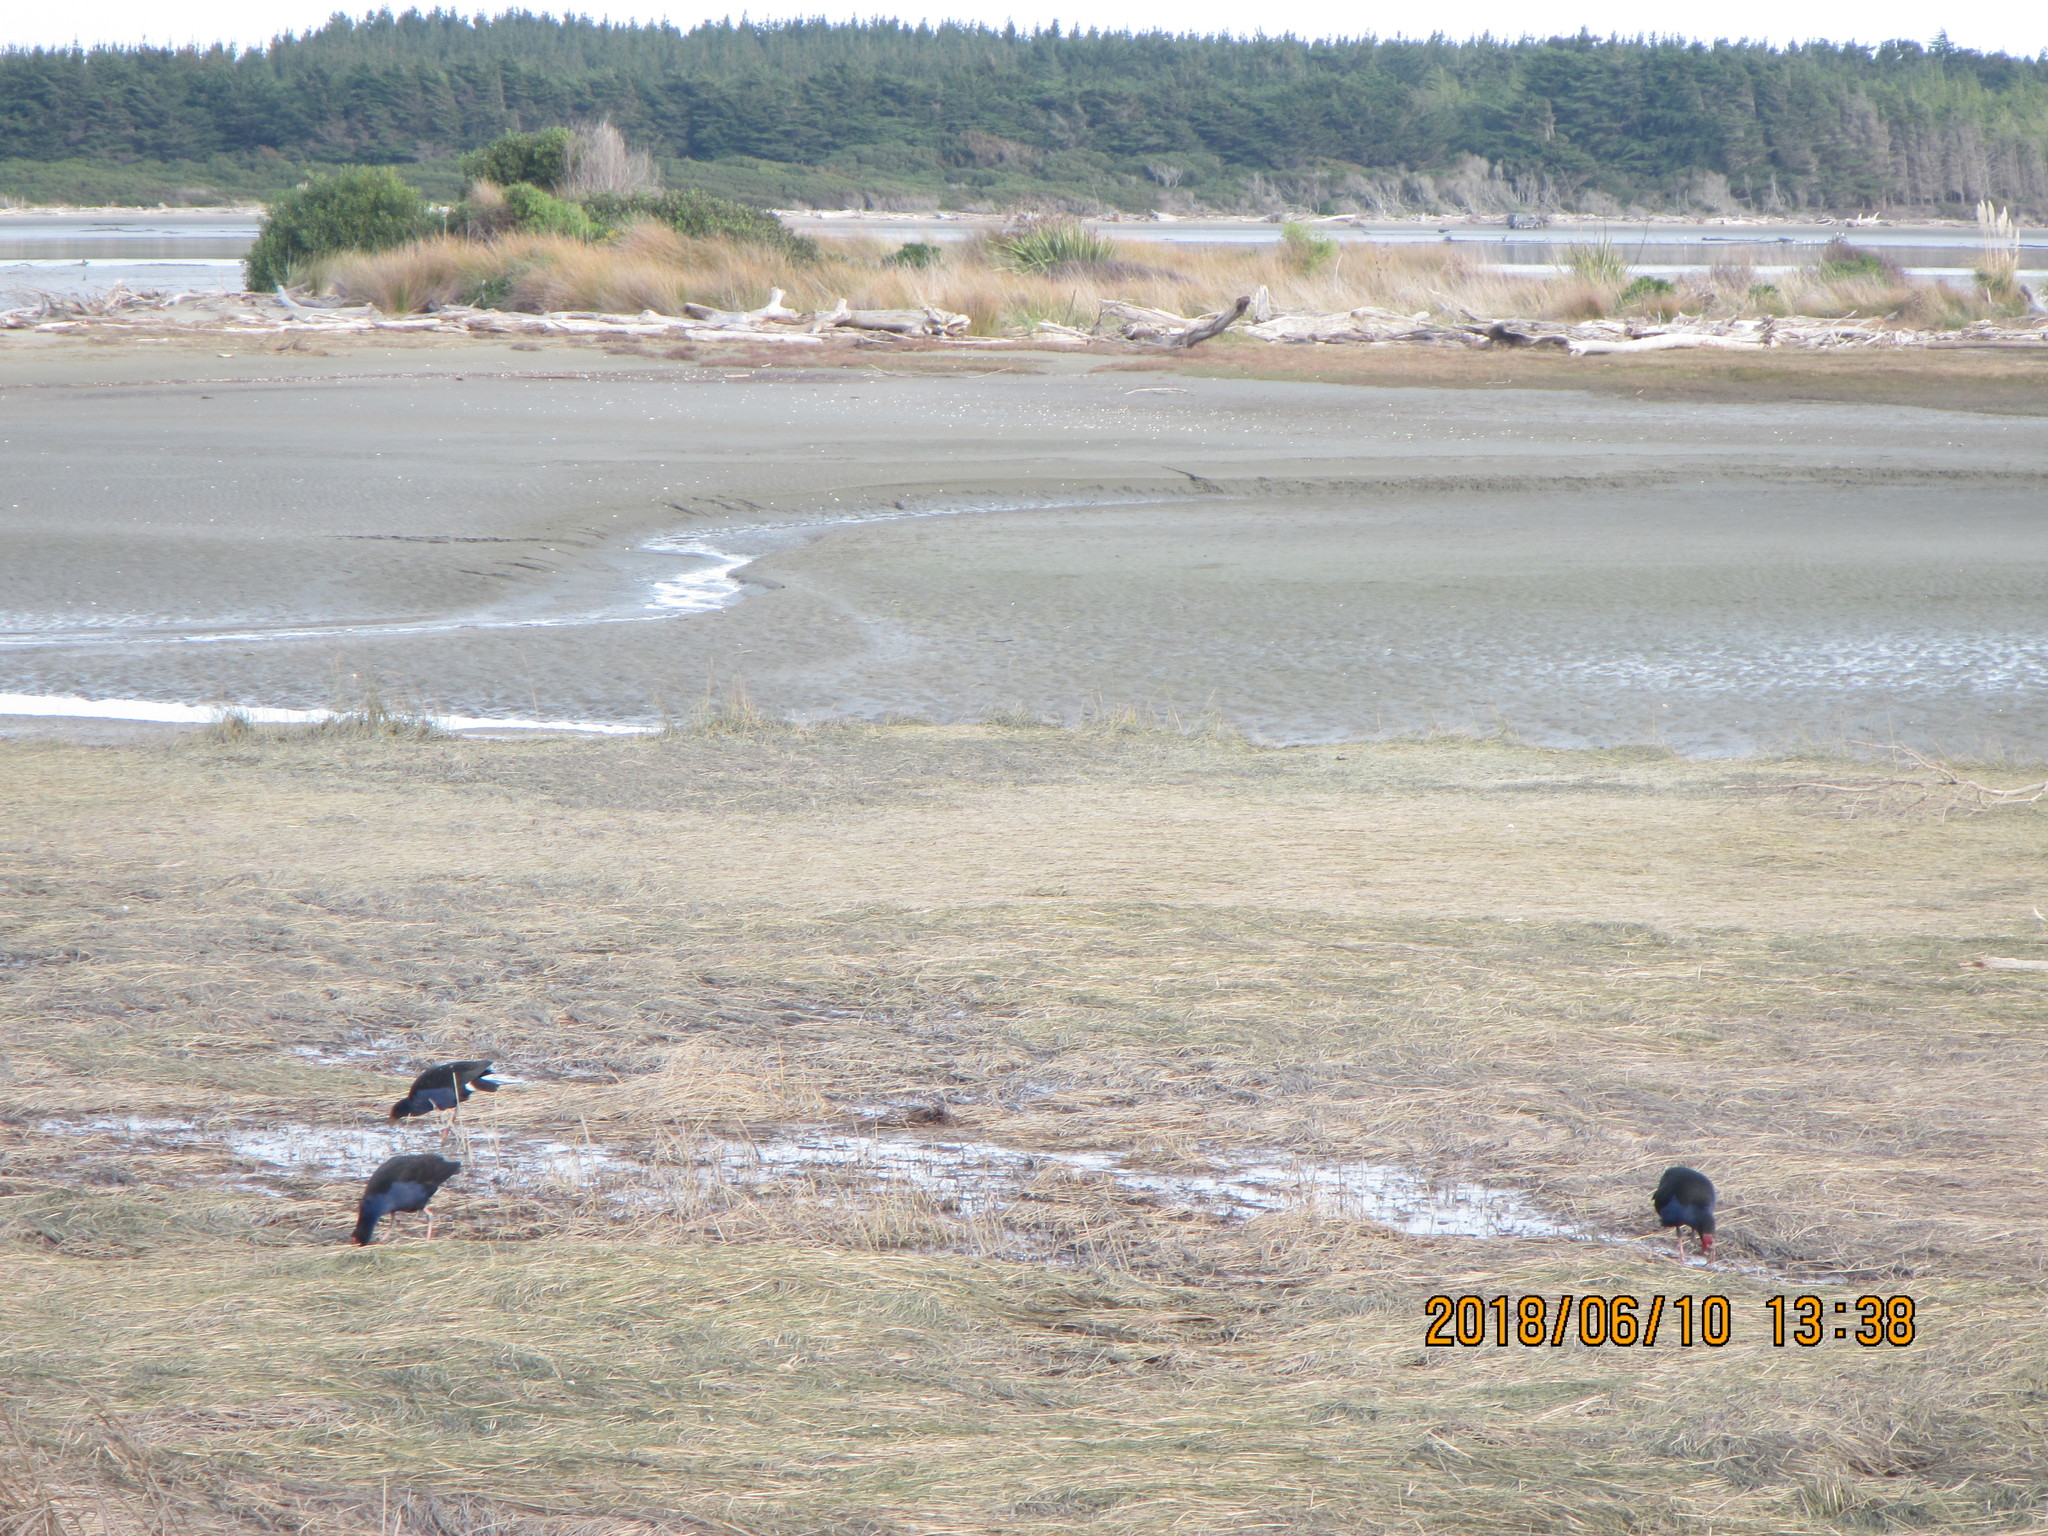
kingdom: Animalia
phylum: Chordata
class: Aves
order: Gruiformes
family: Rallidae
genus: Porphyrio
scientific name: Porphyrio melanotus
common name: Australasian swamphen
